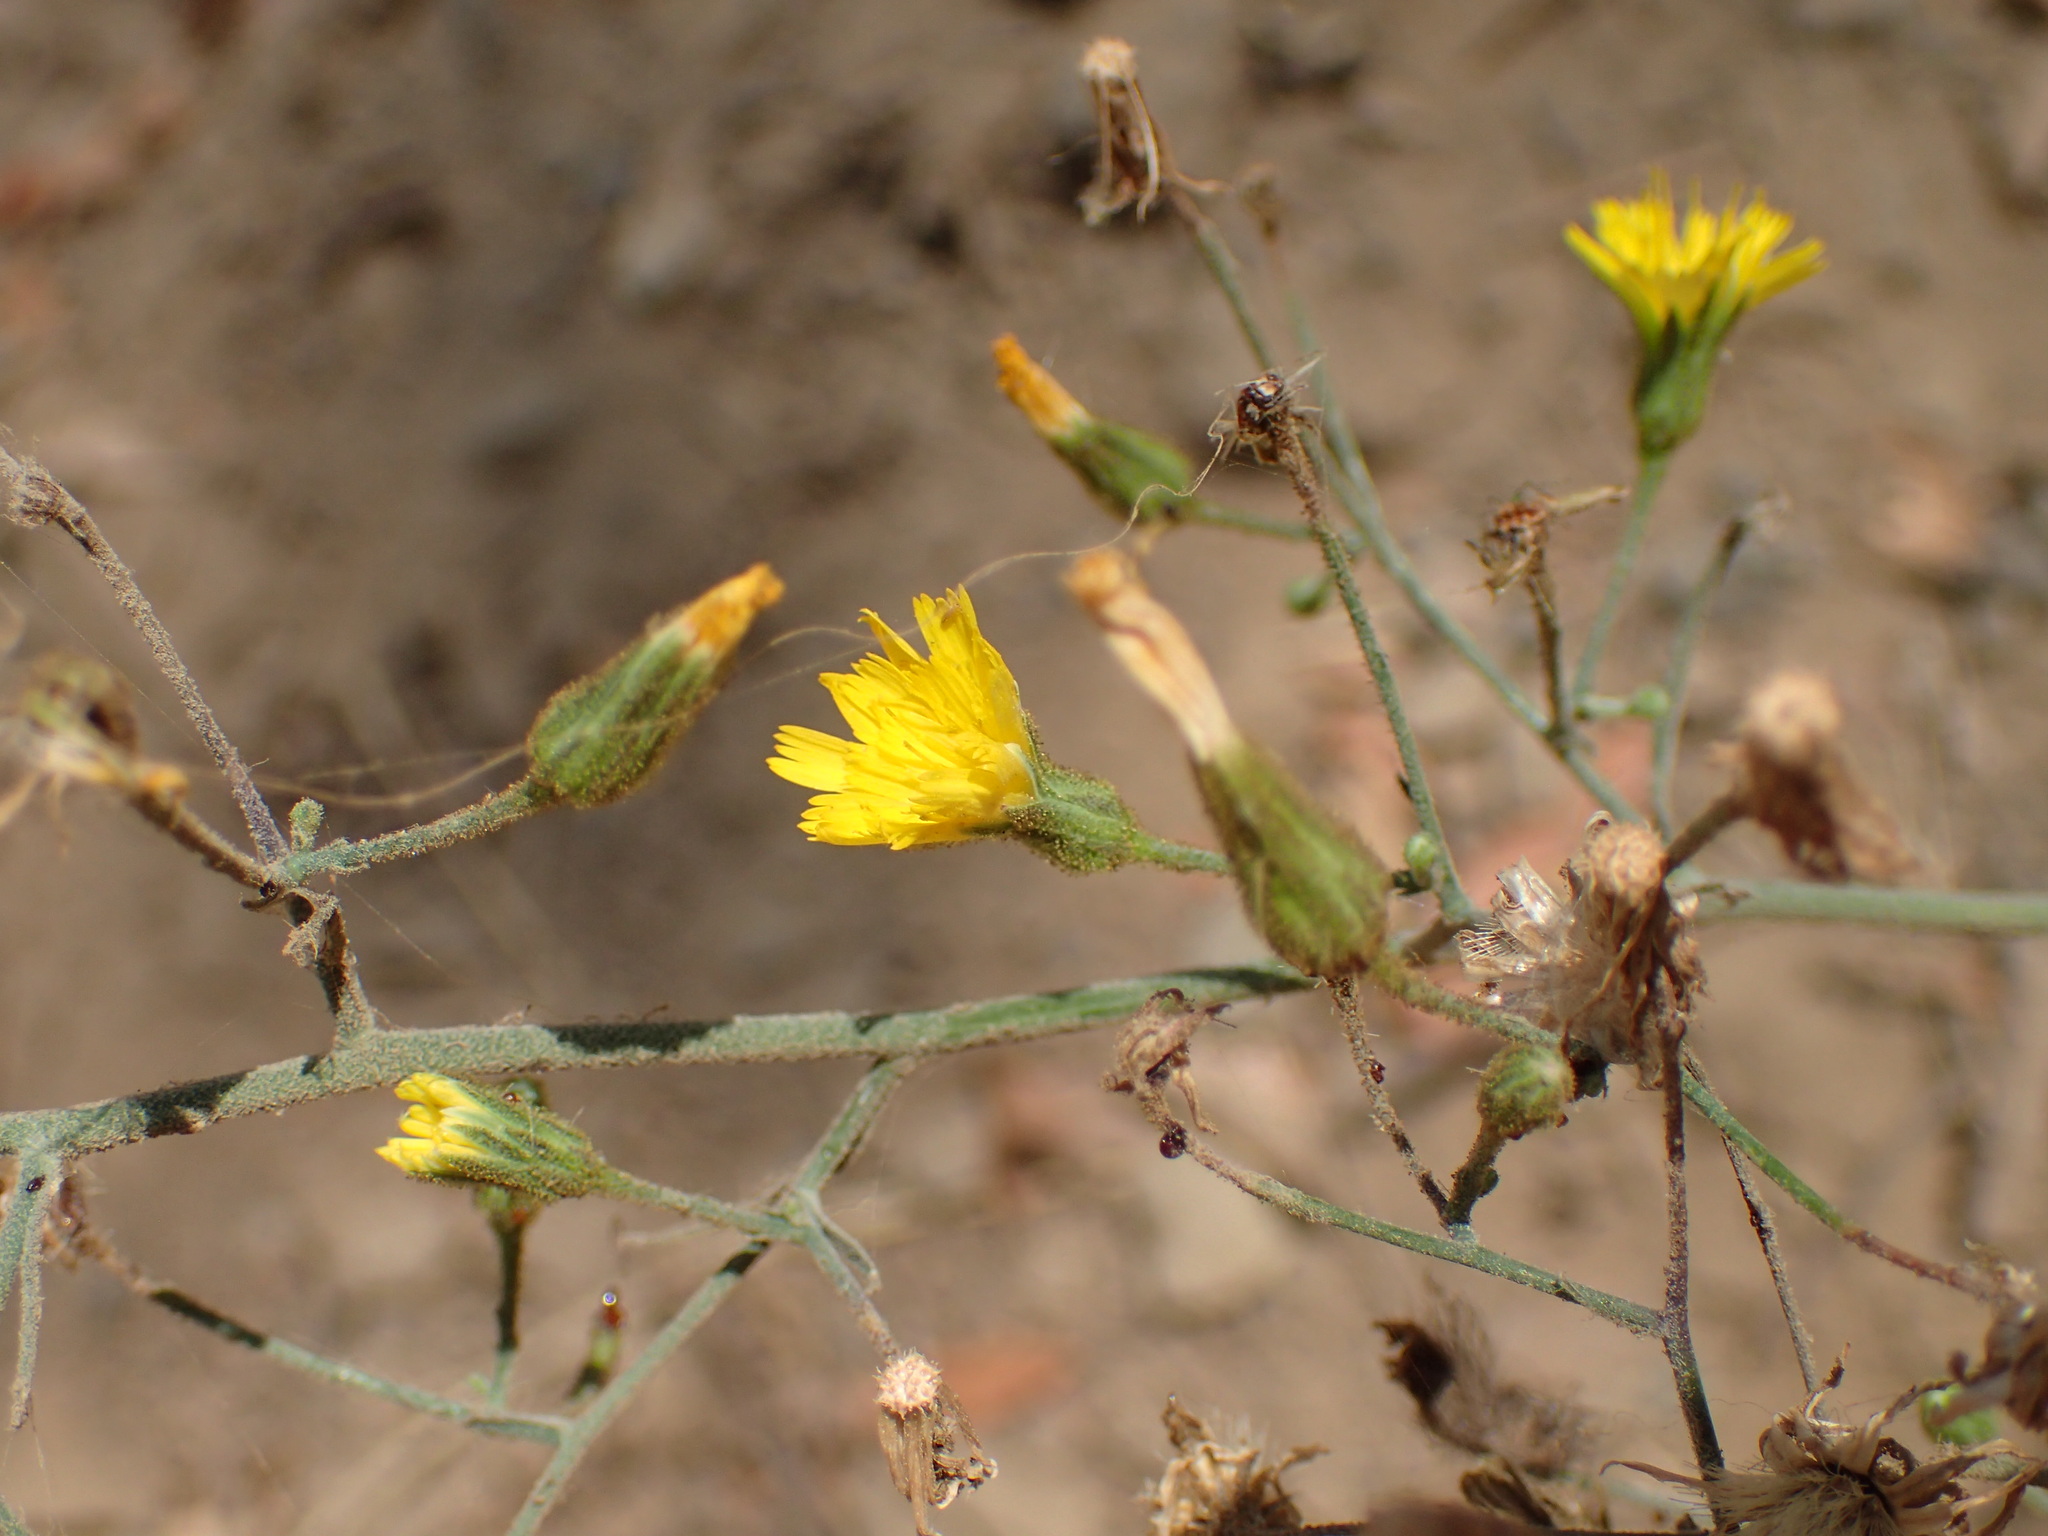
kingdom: Plantae
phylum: Tracheophyta
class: Magnoliopsida
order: Asterales
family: Asteraceae
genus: Hieracium
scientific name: Hieracium argutum
